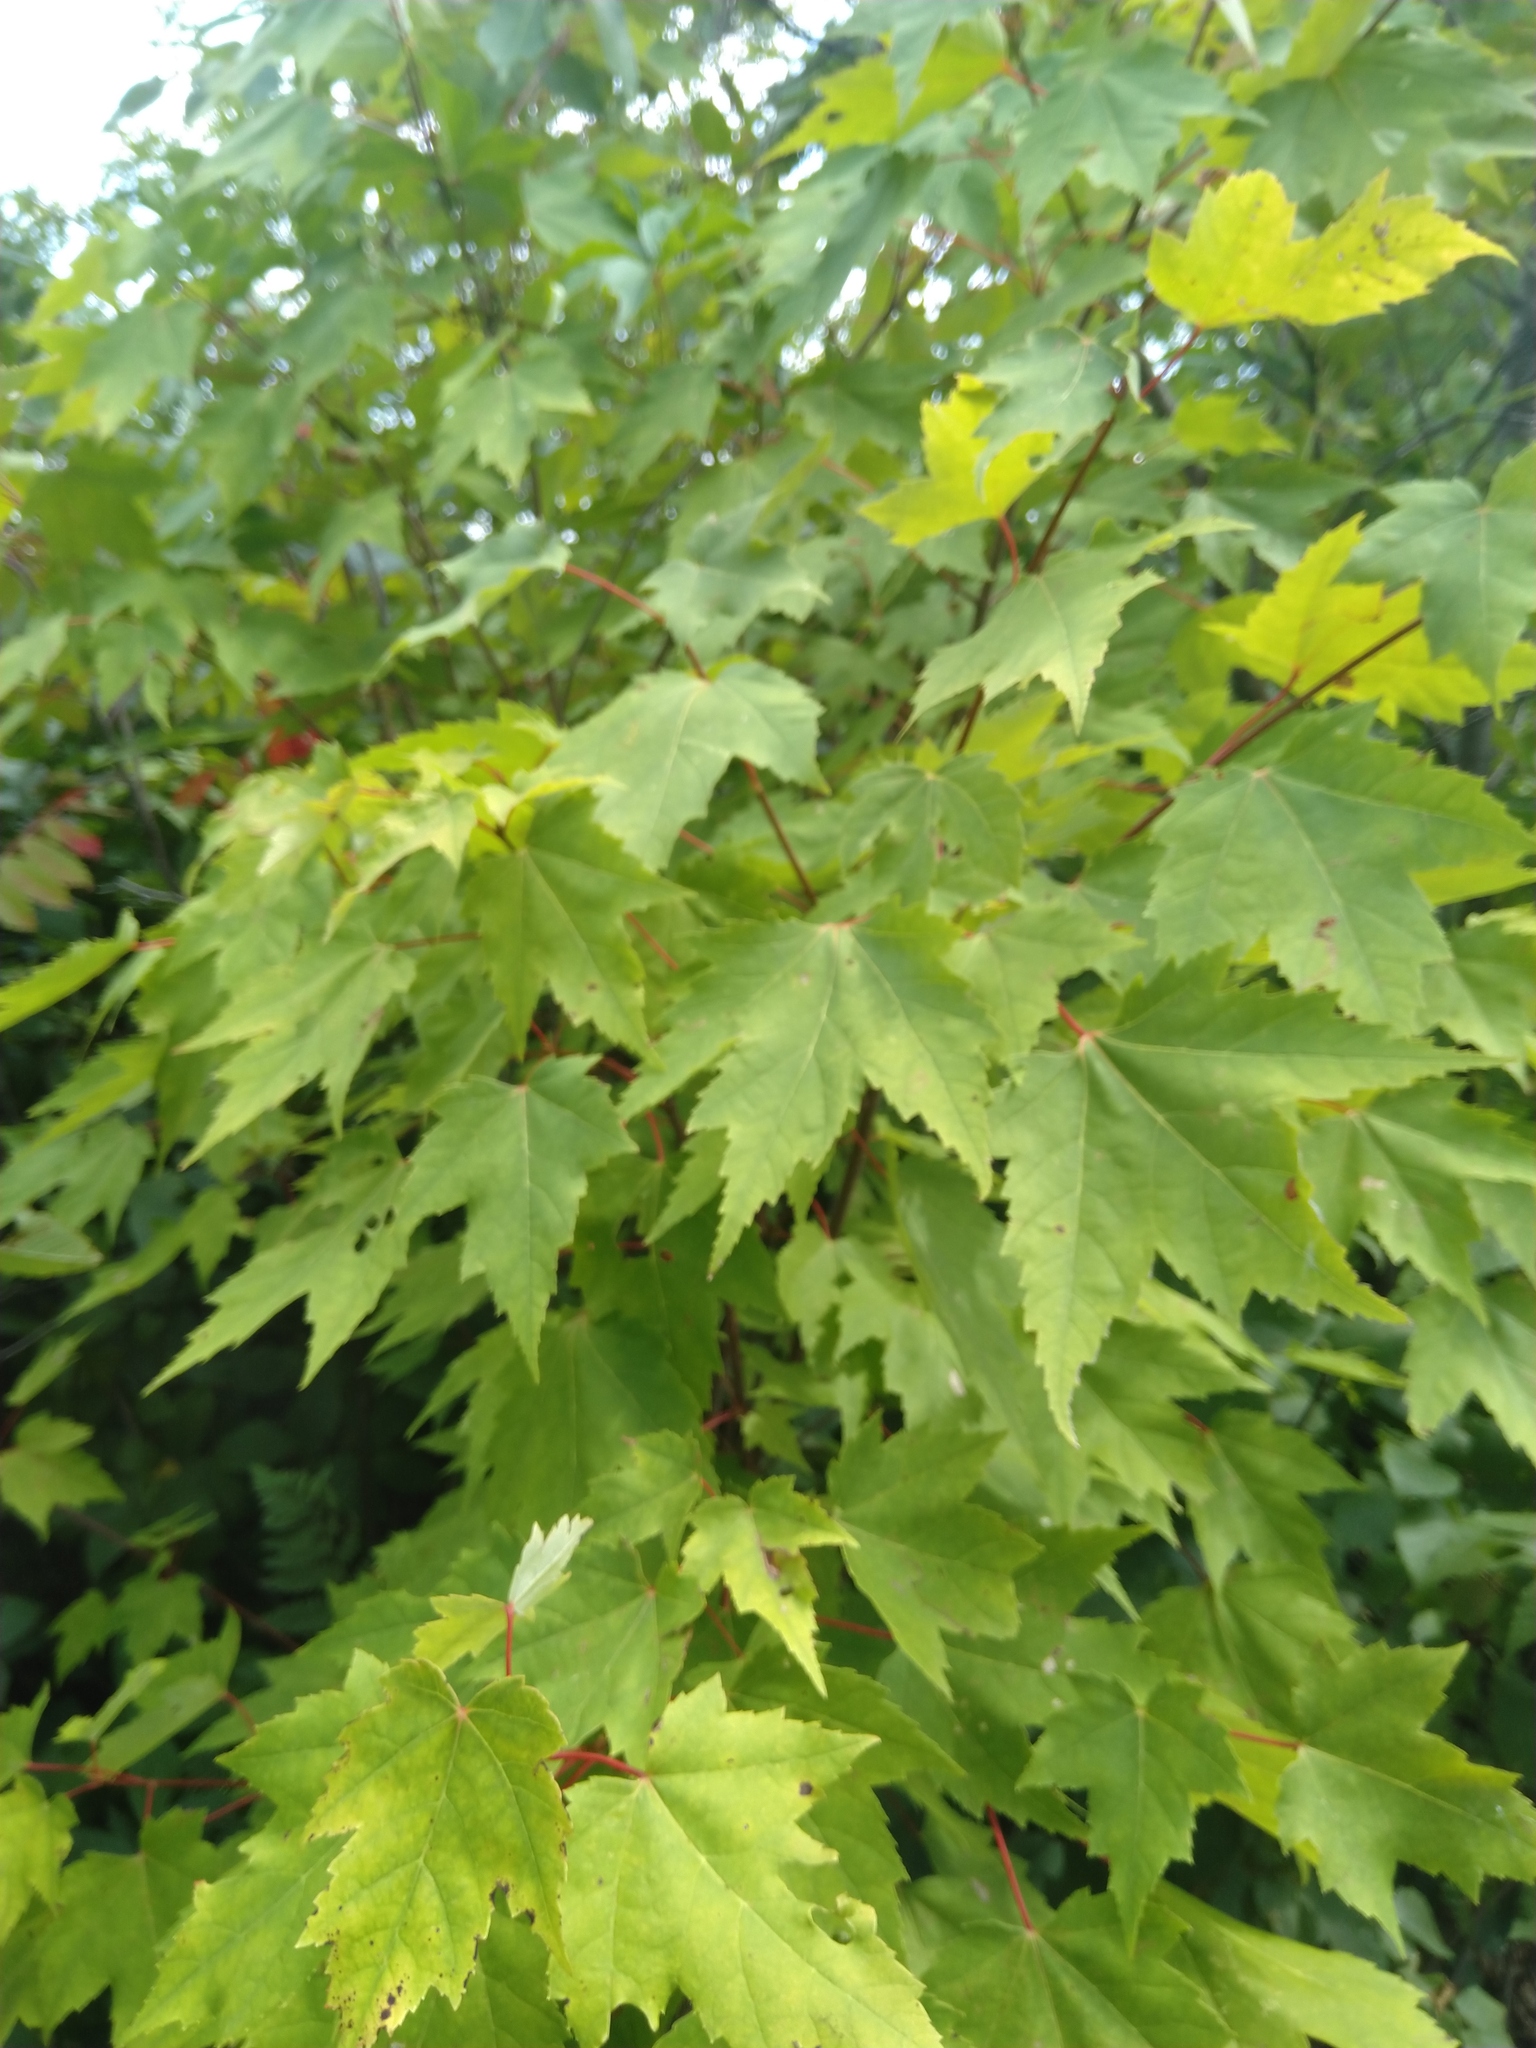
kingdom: Plantae
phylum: Tracheophyta
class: Magnoliopsida
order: Sapindales
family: Sapindaceae
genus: Acer
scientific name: Acer rubrum
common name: Red maple
